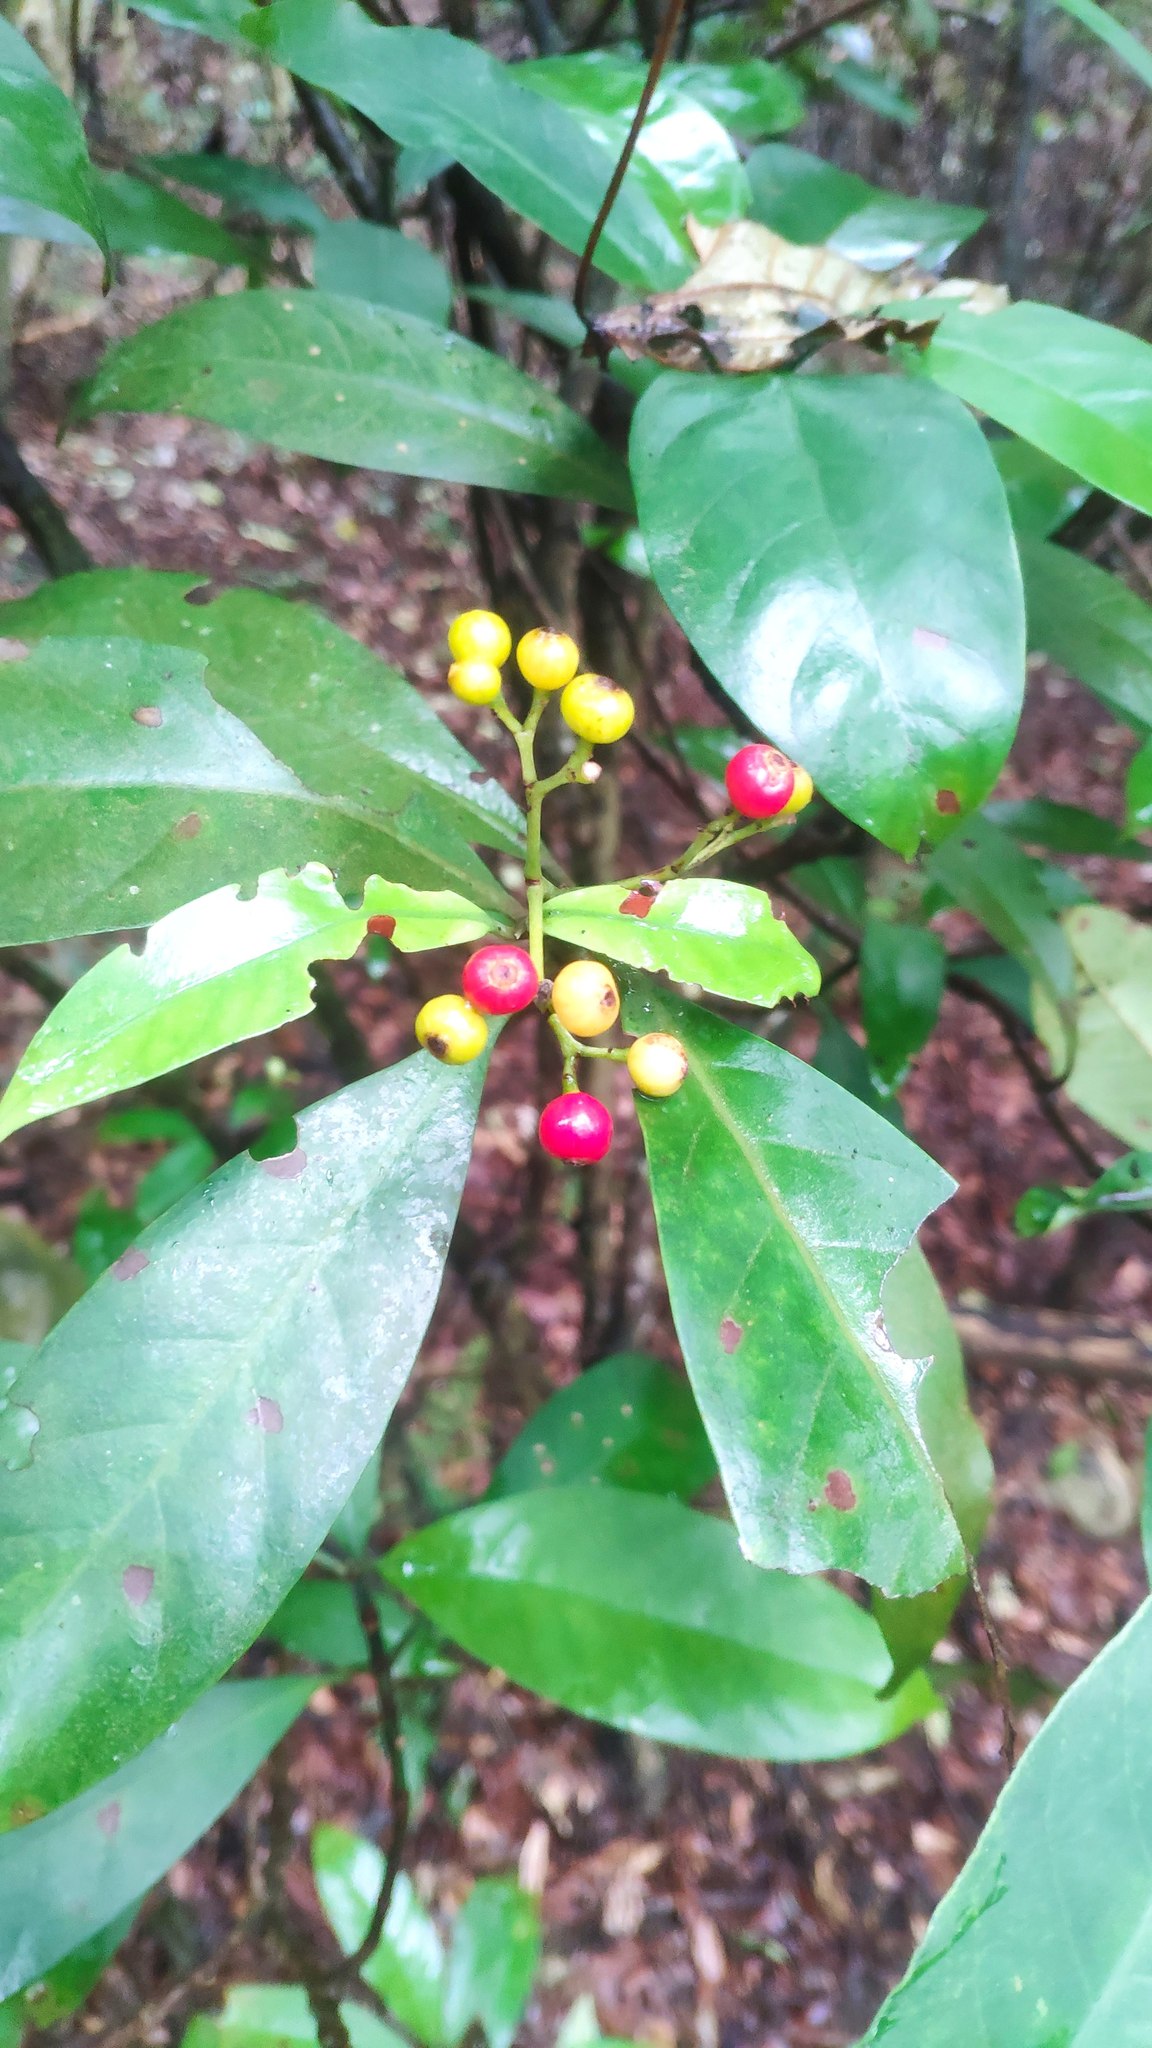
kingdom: Plantae
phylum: Tracheophyta
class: Magnoliopsida
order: Gentianales
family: Rubiaceae
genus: Psychotria
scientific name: Psychotria asiatica
